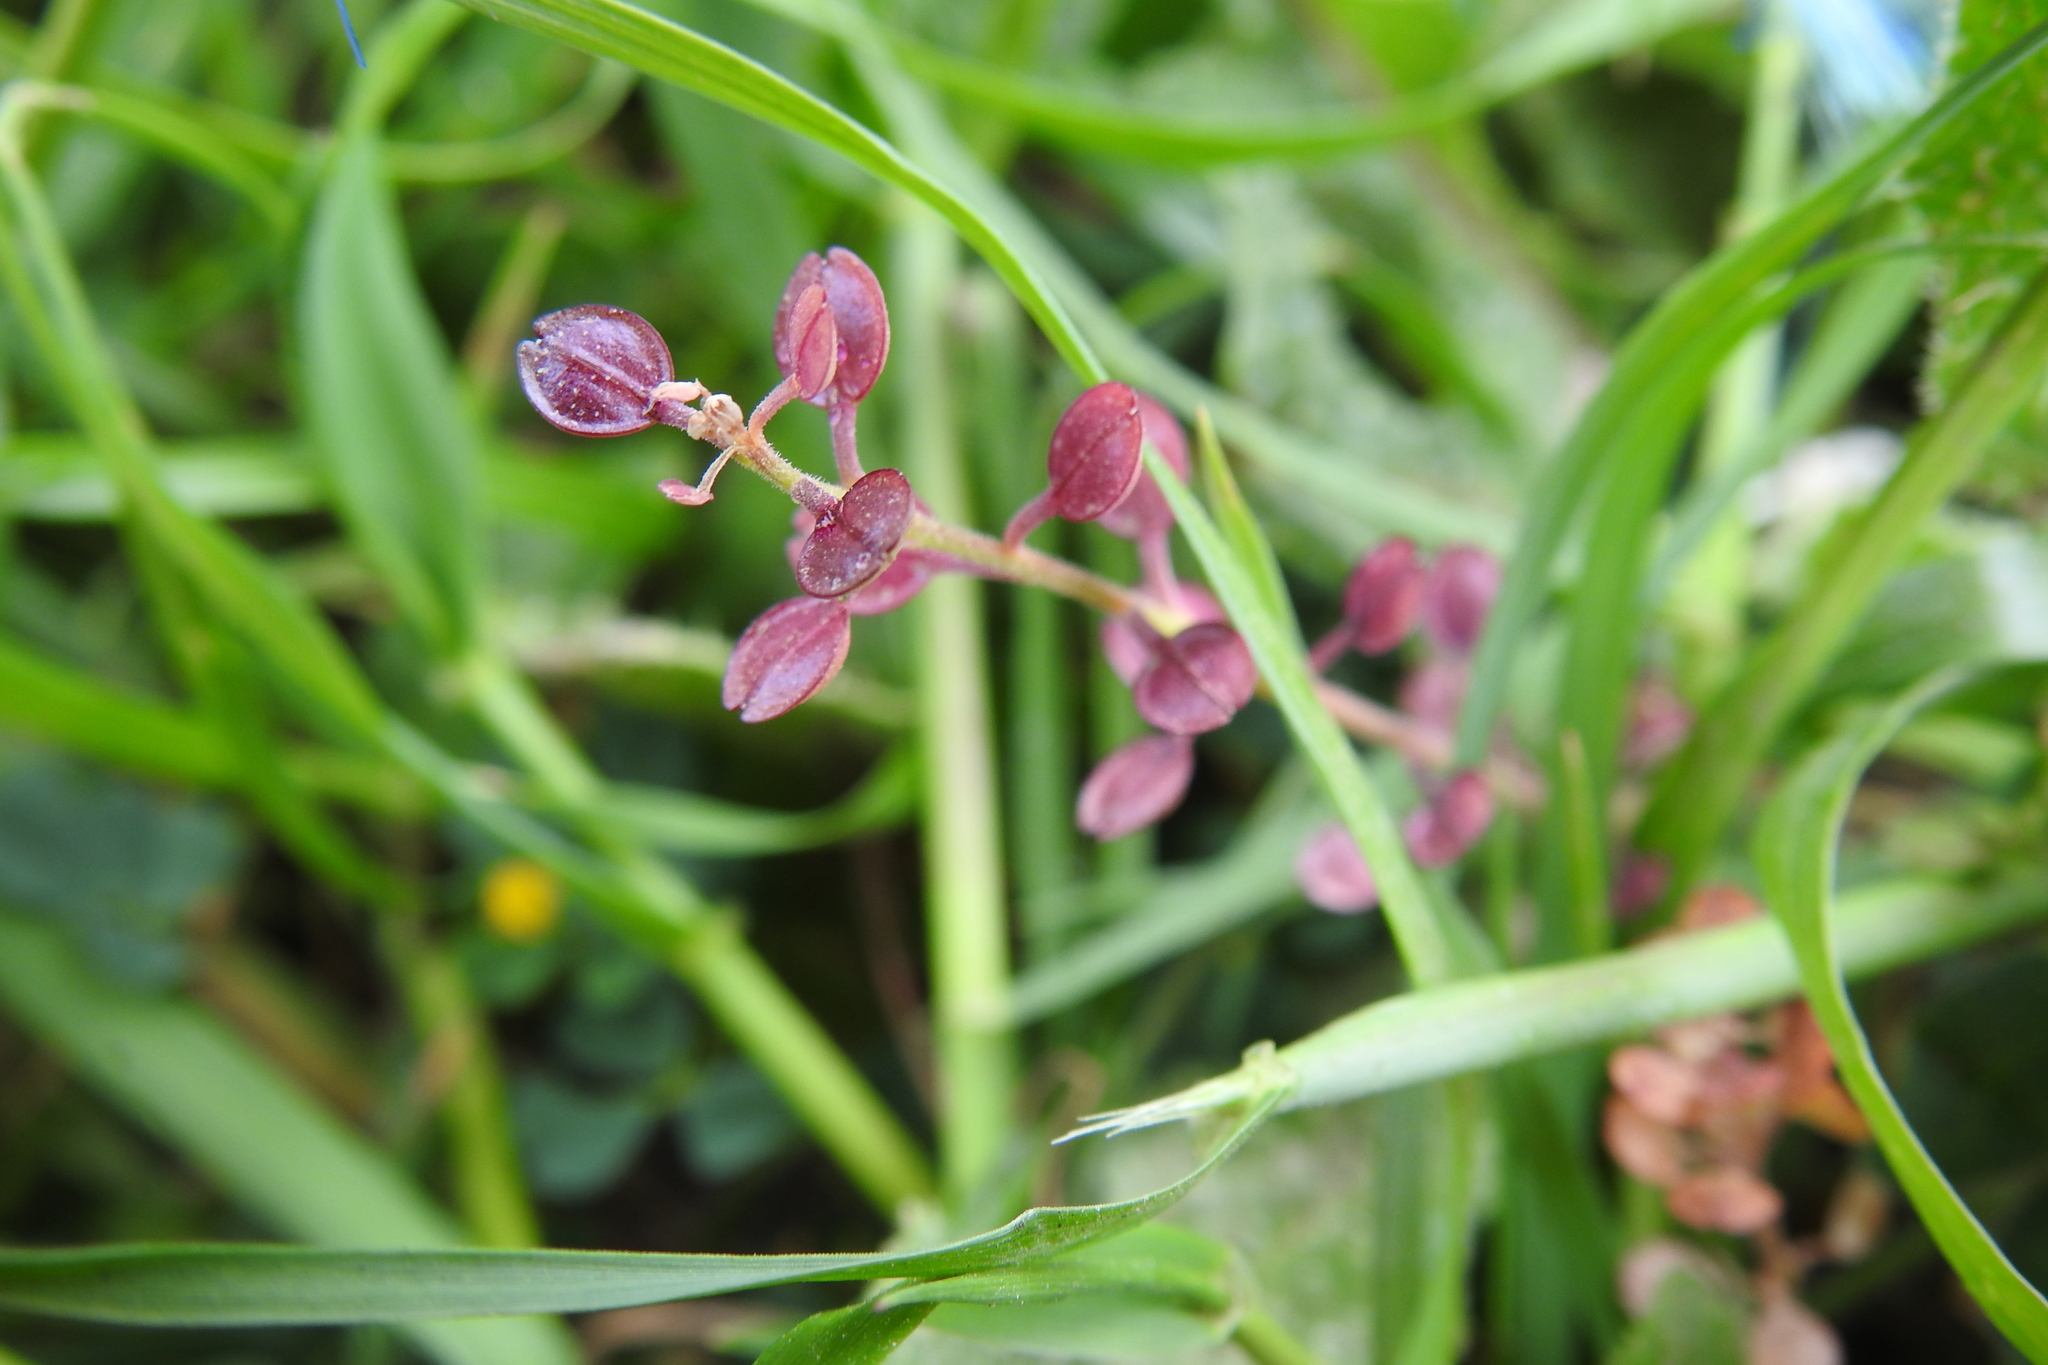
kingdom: Plantae
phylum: Tracheophyta
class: Magnoliopsida
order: Brassicales
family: Brassicaceae
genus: Lepidium
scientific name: Lepidium nitidum
